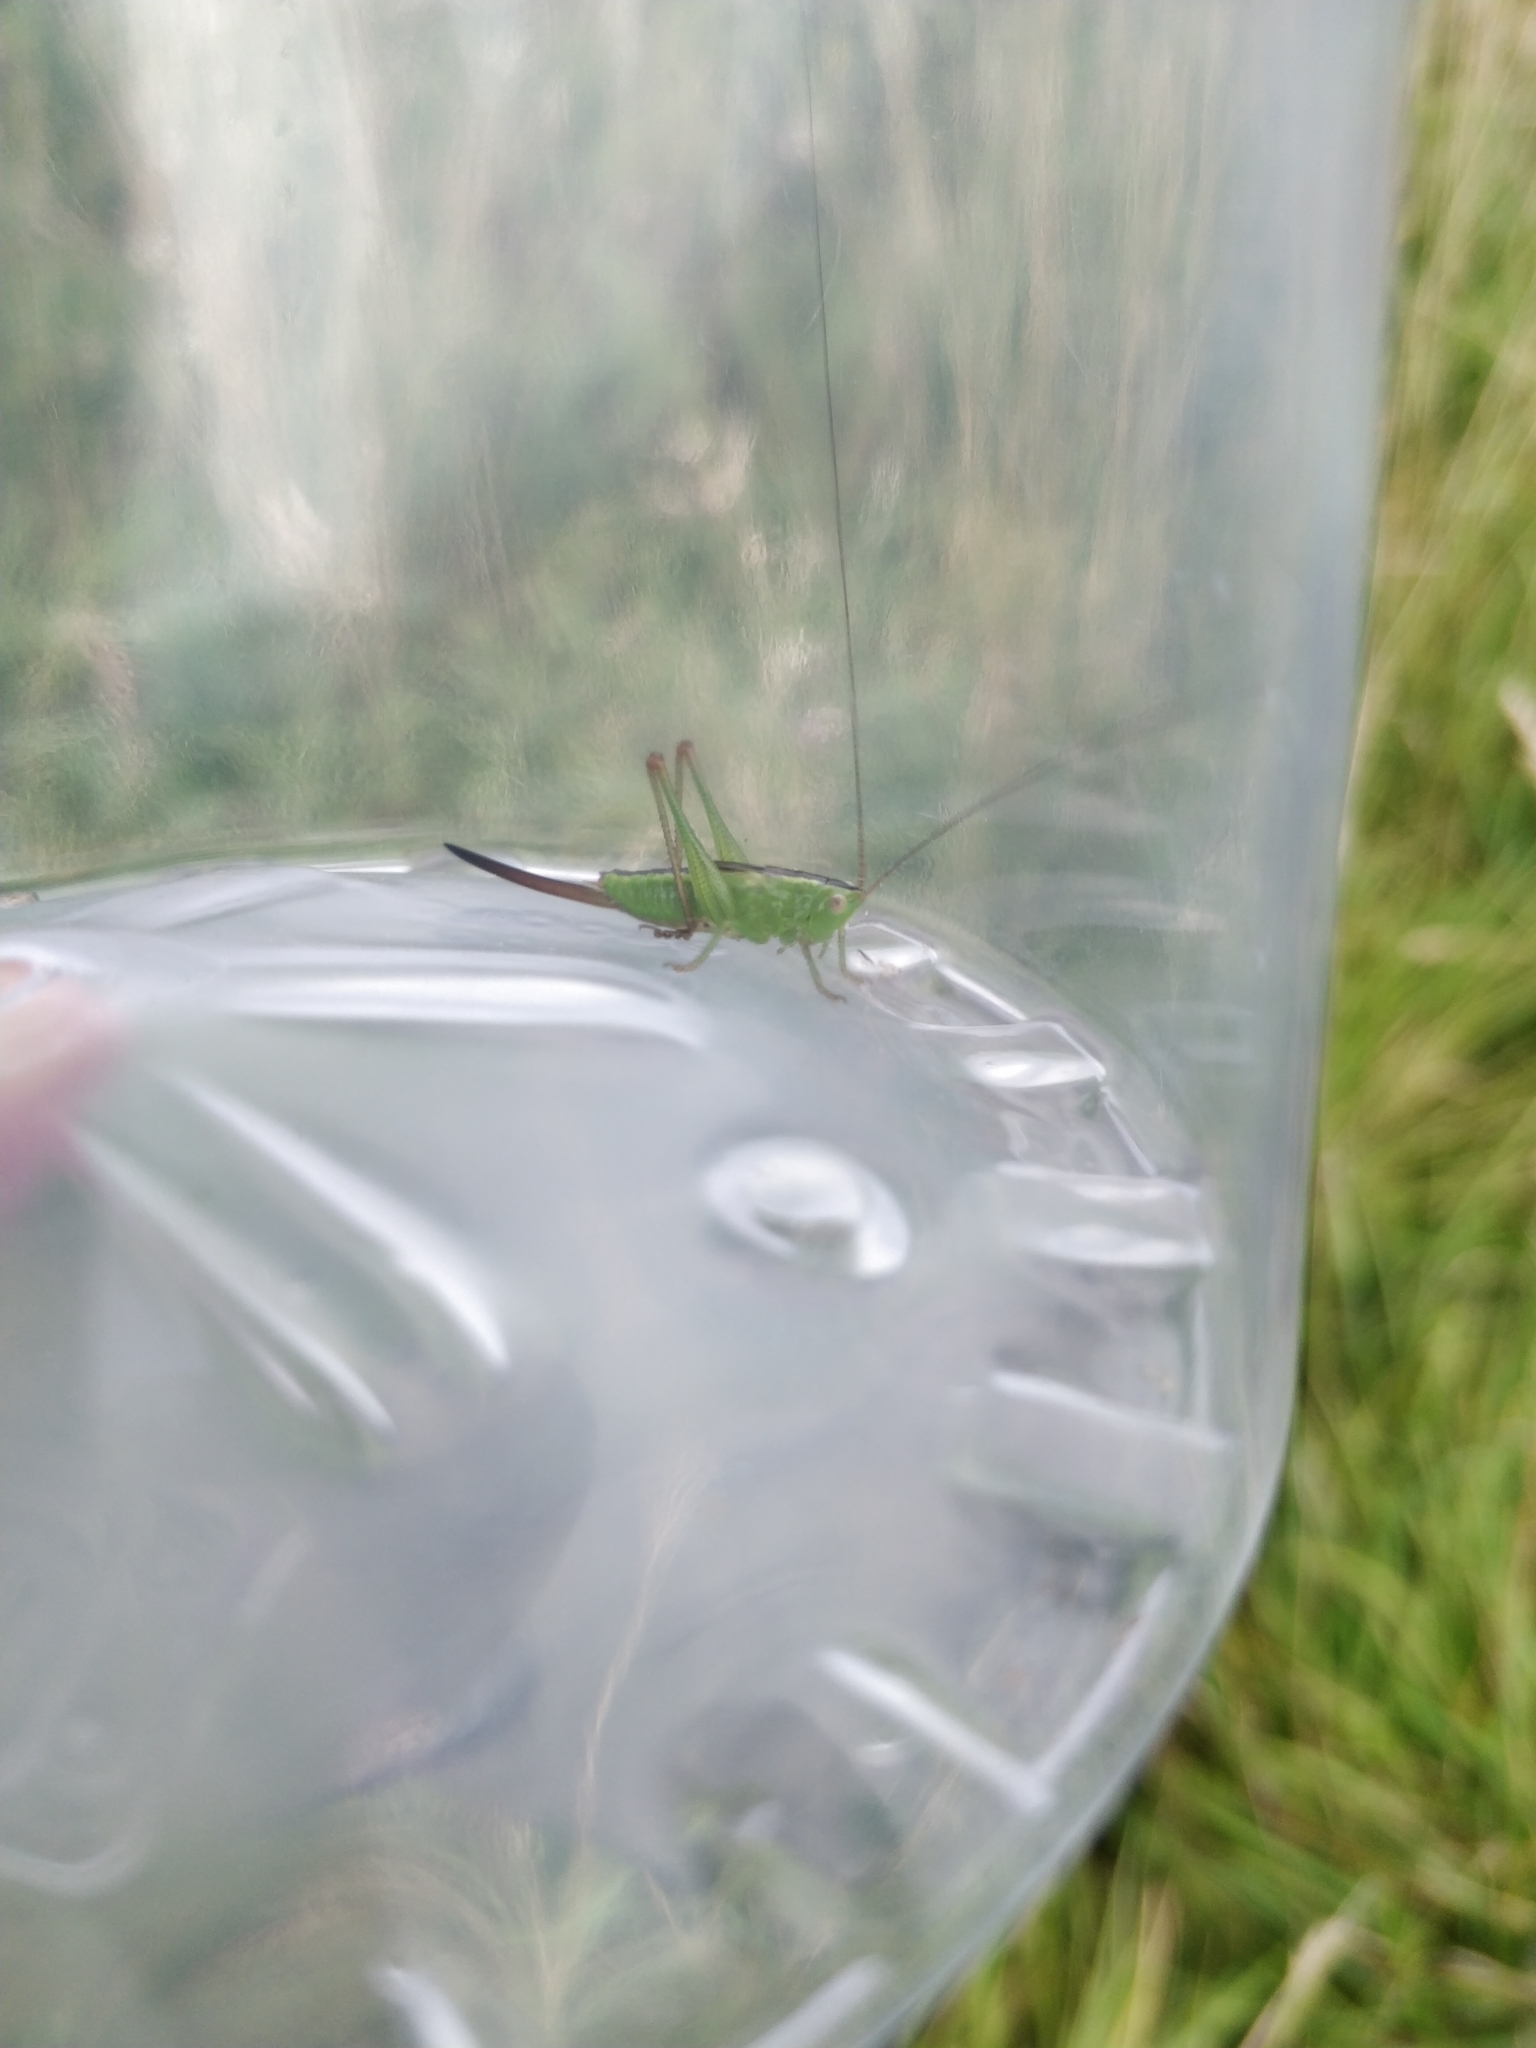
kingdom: Animalia
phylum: Arthropoda
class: Insecta
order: Orthoptera
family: Tettigoniidae
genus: Conocephalus
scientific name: Conocephalus fuscus
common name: Long-winged conehead
